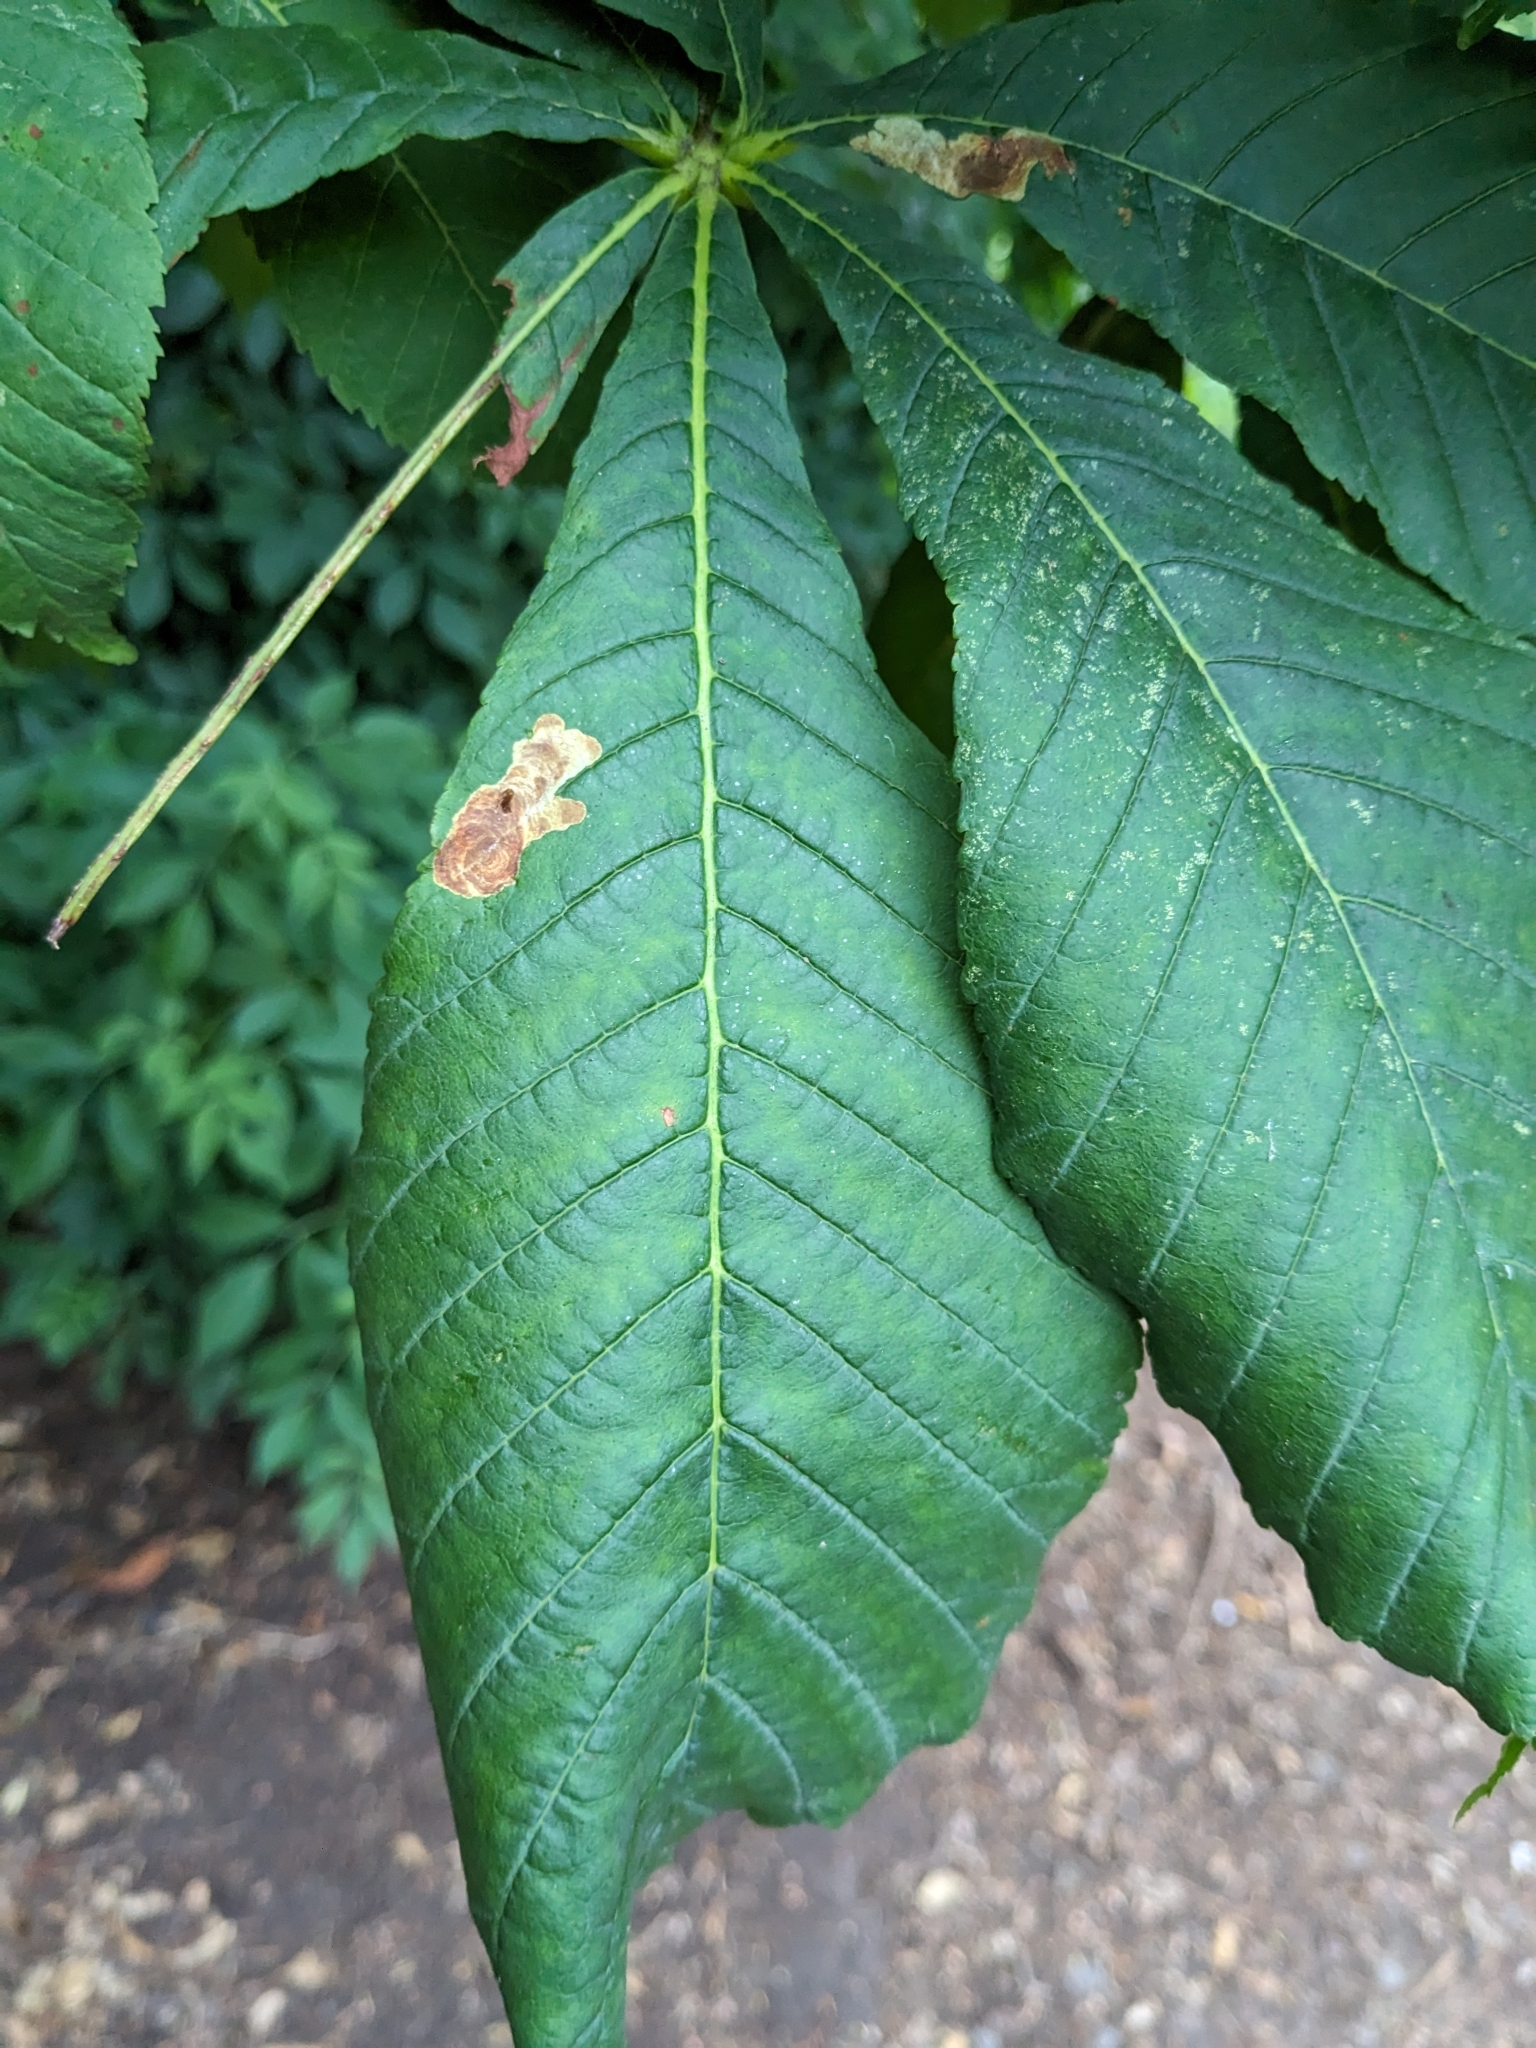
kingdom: Animalia
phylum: Arthropoda
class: Insecta
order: Lepidoptera
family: Gracillariidae
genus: Cameraria
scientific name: Cameraria ohridella
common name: Horse-chestnut leaf-miner
